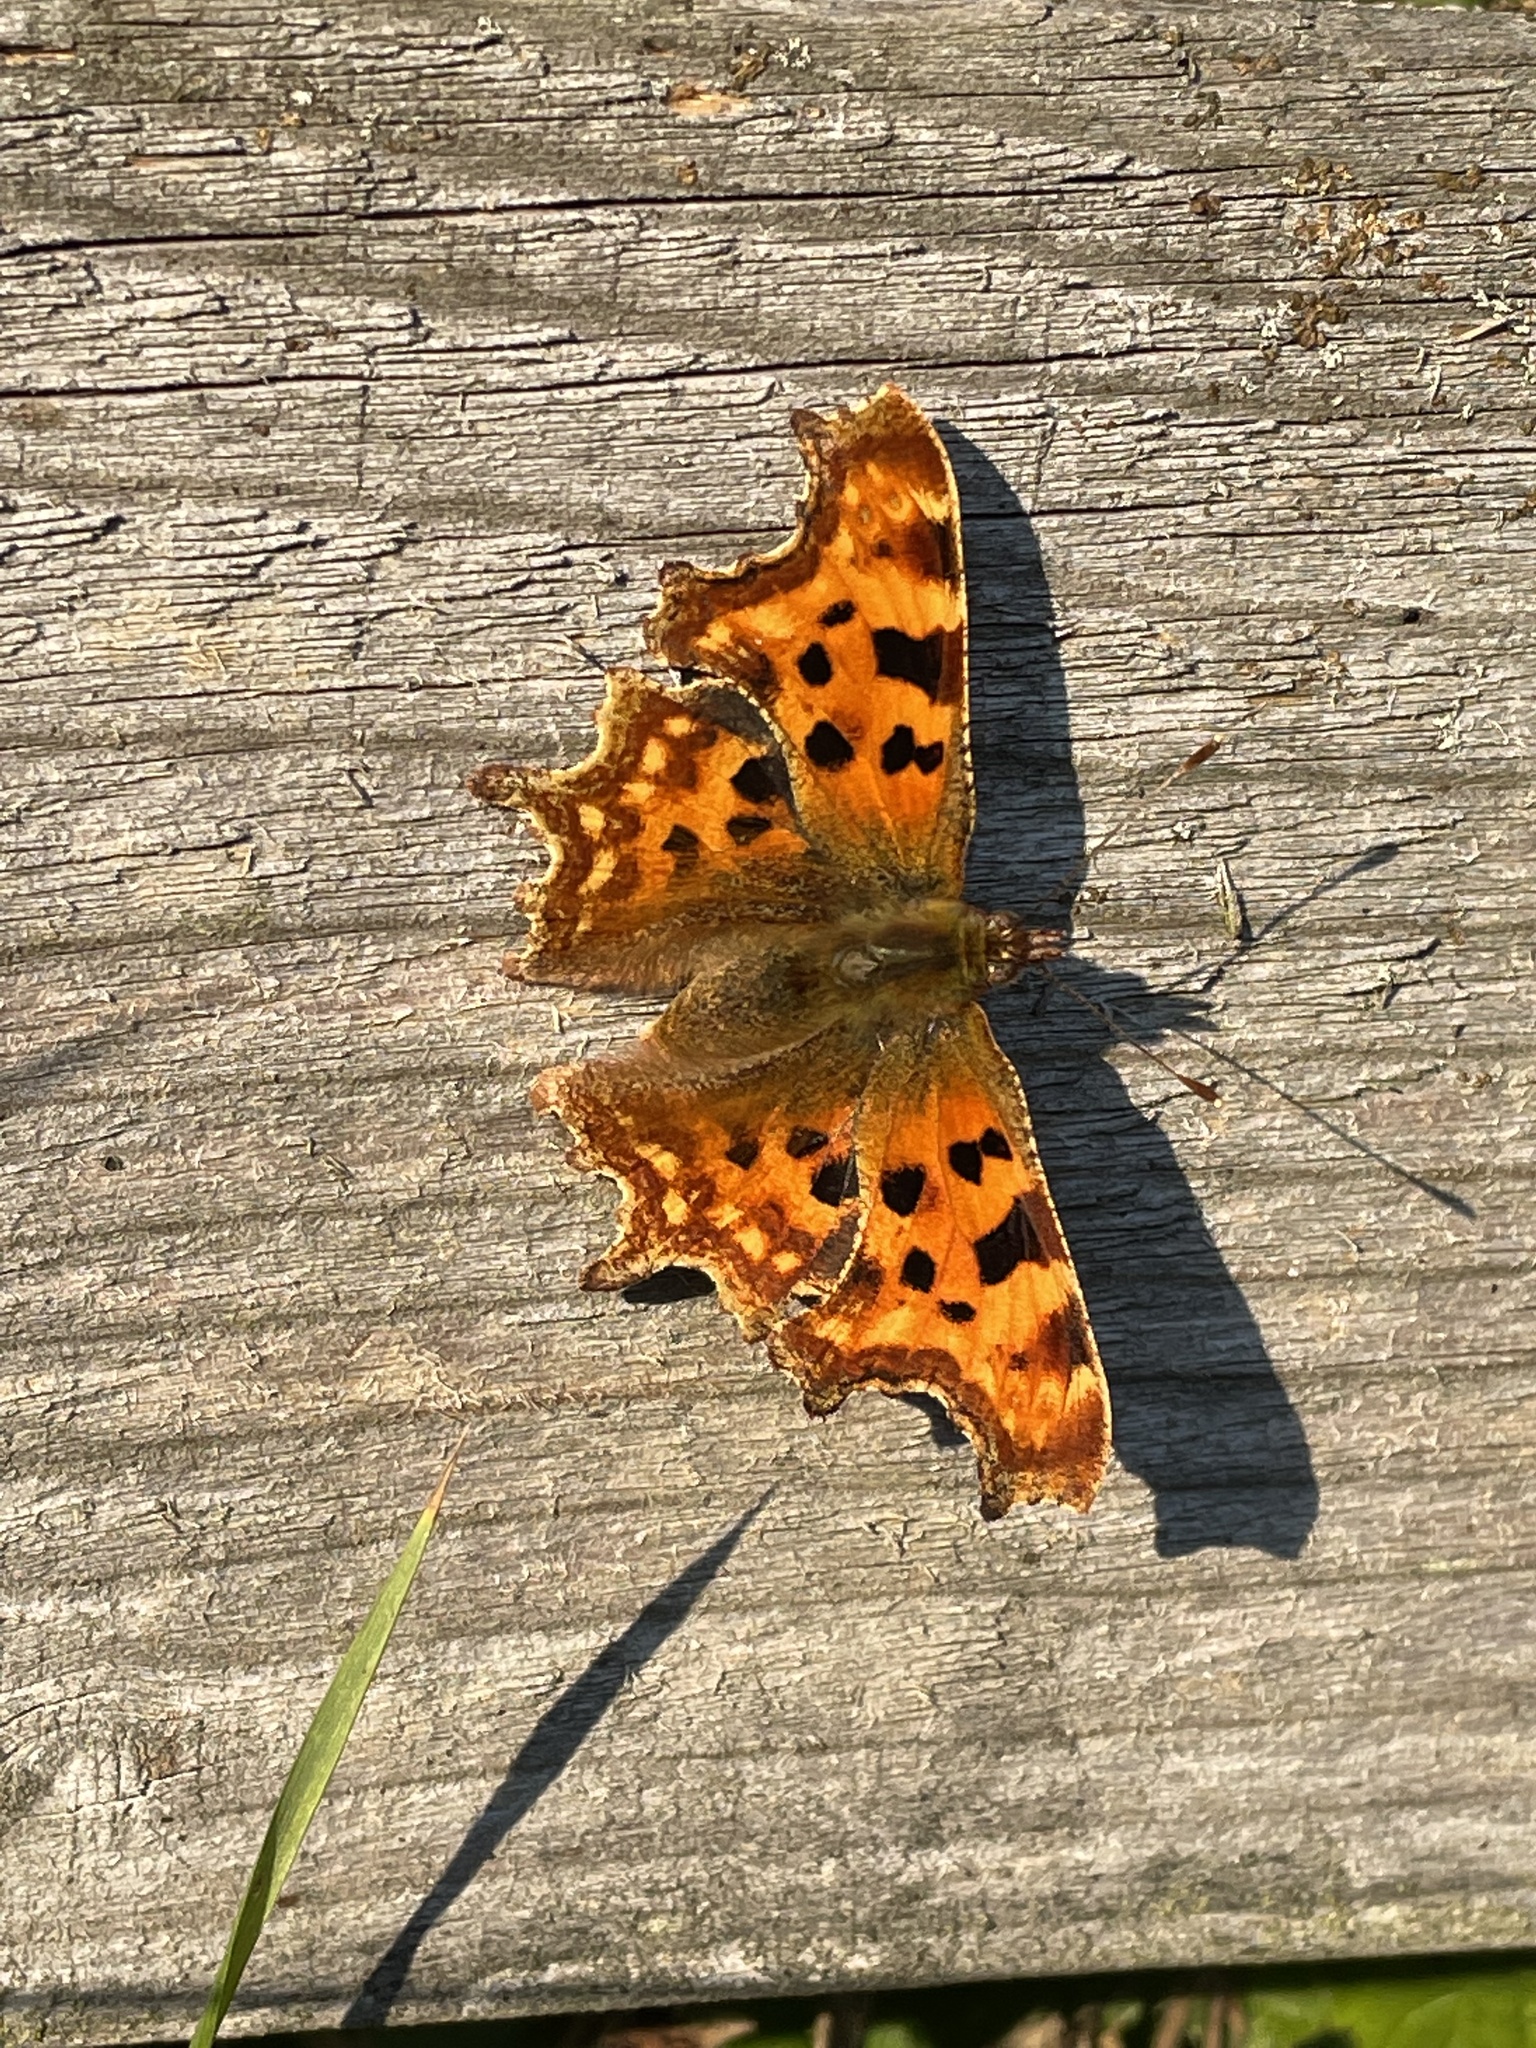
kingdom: Animalia
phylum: Arthropoda
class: Insecta
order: Lepidoptera
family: Nymphalidae
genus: Polygonia
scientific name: Polygonia c-album
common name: Comma
